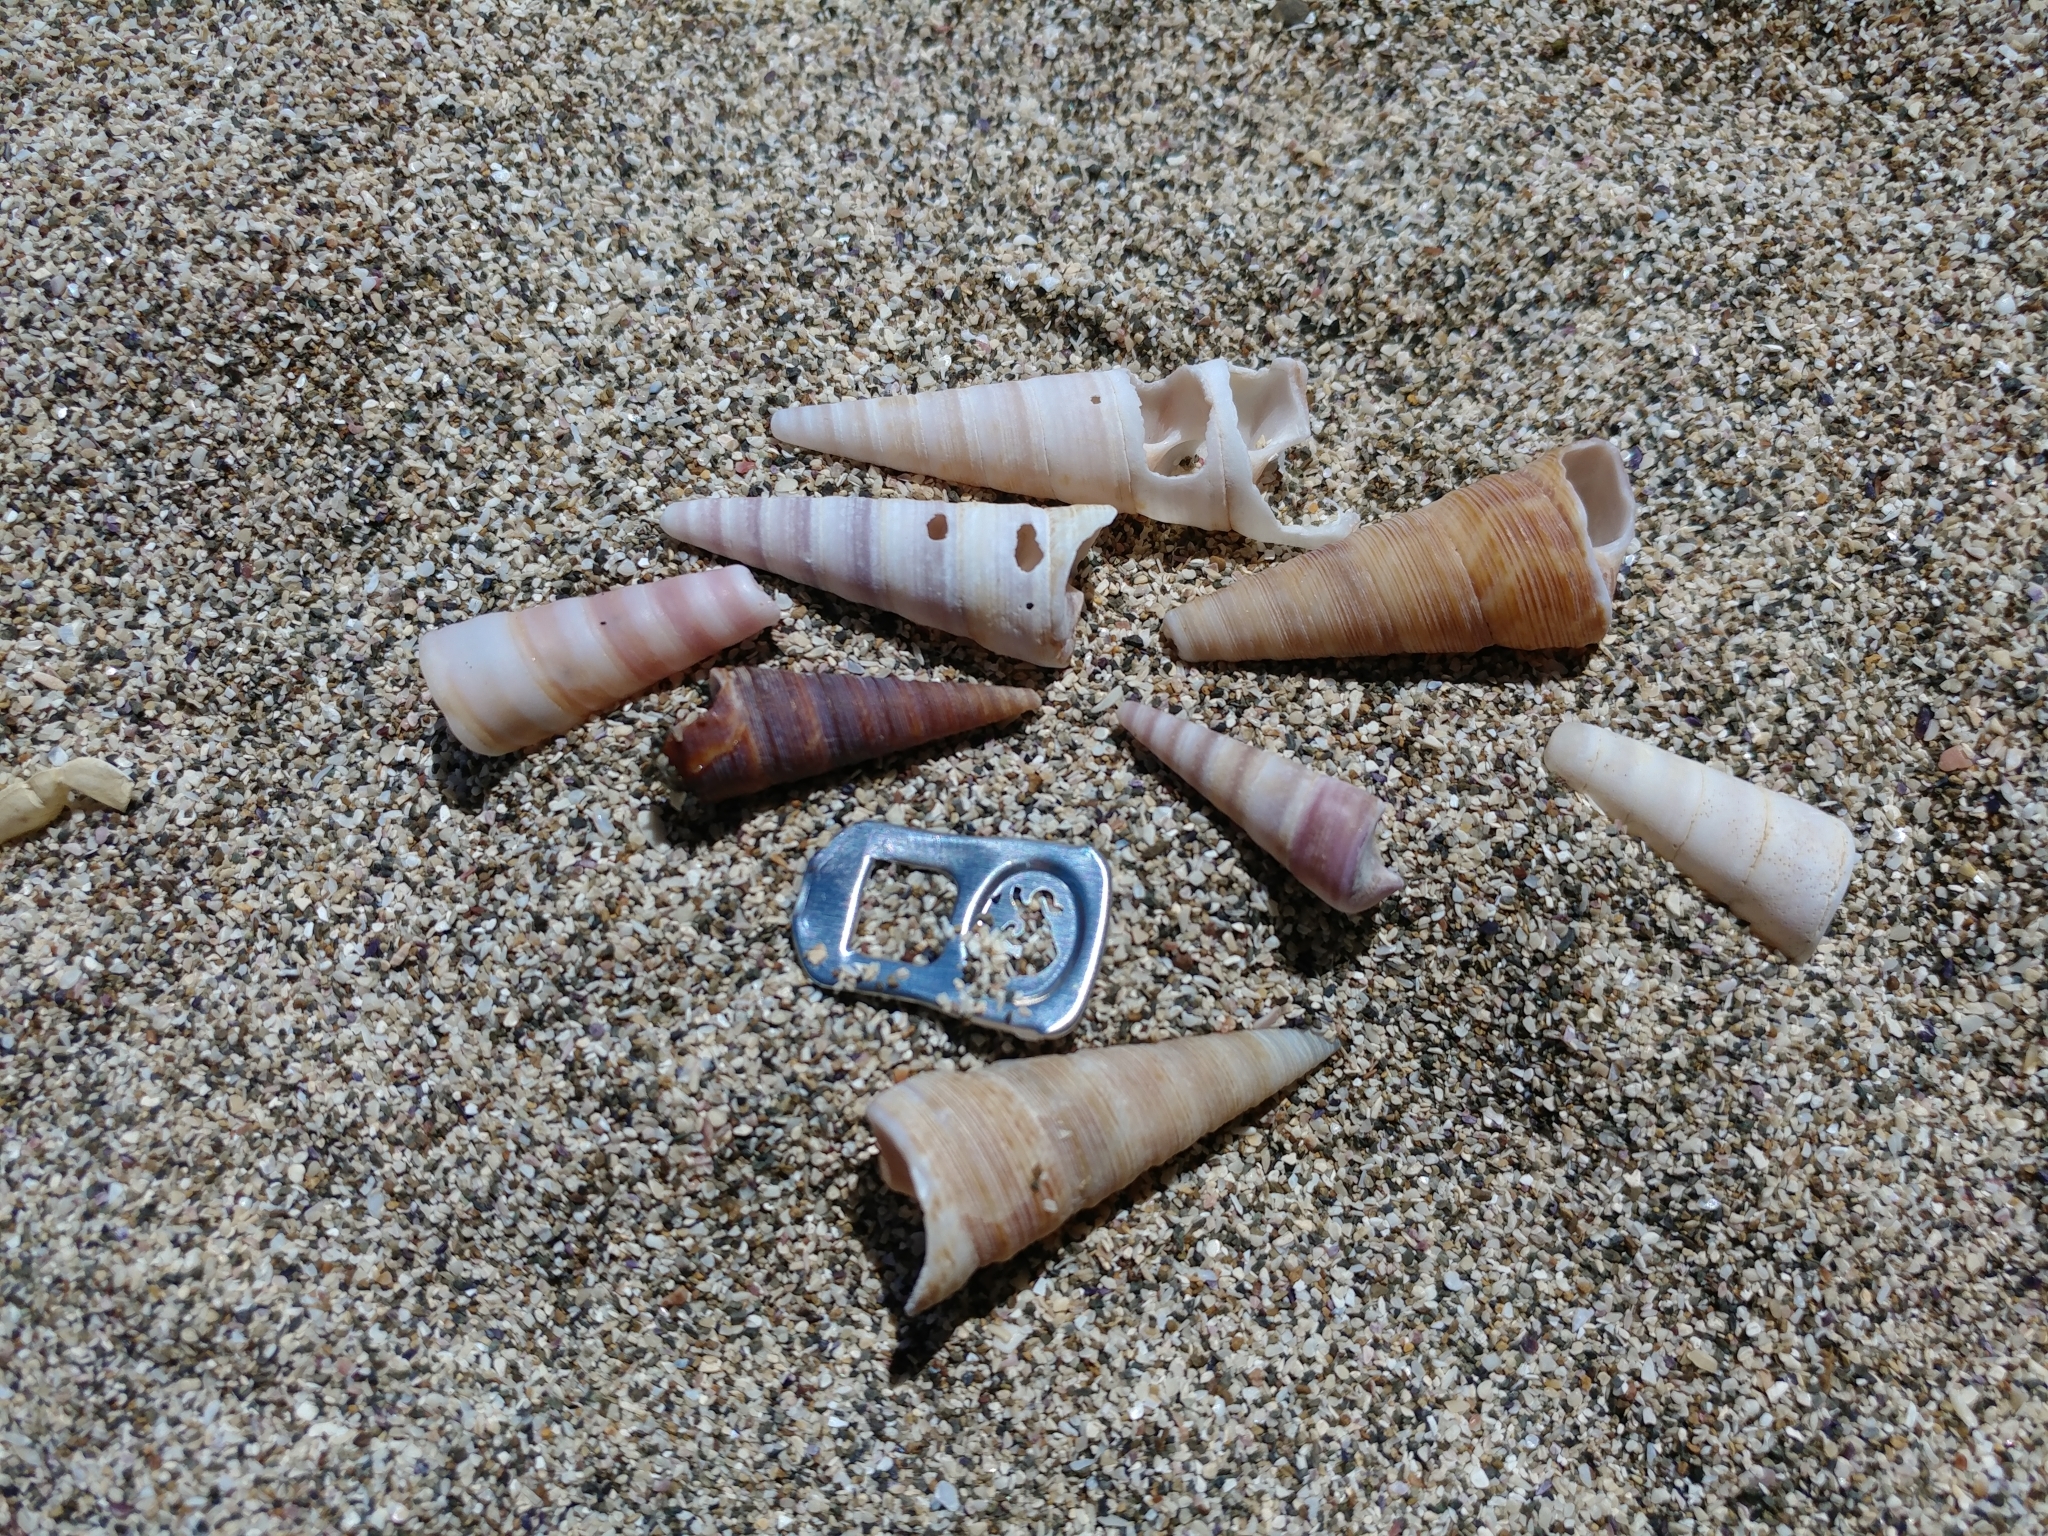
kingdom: Animalia
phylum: Mollusca
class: Gastropoda
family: Turritellidae
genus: Maoricolpus
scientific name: Maoricolpus roseus
